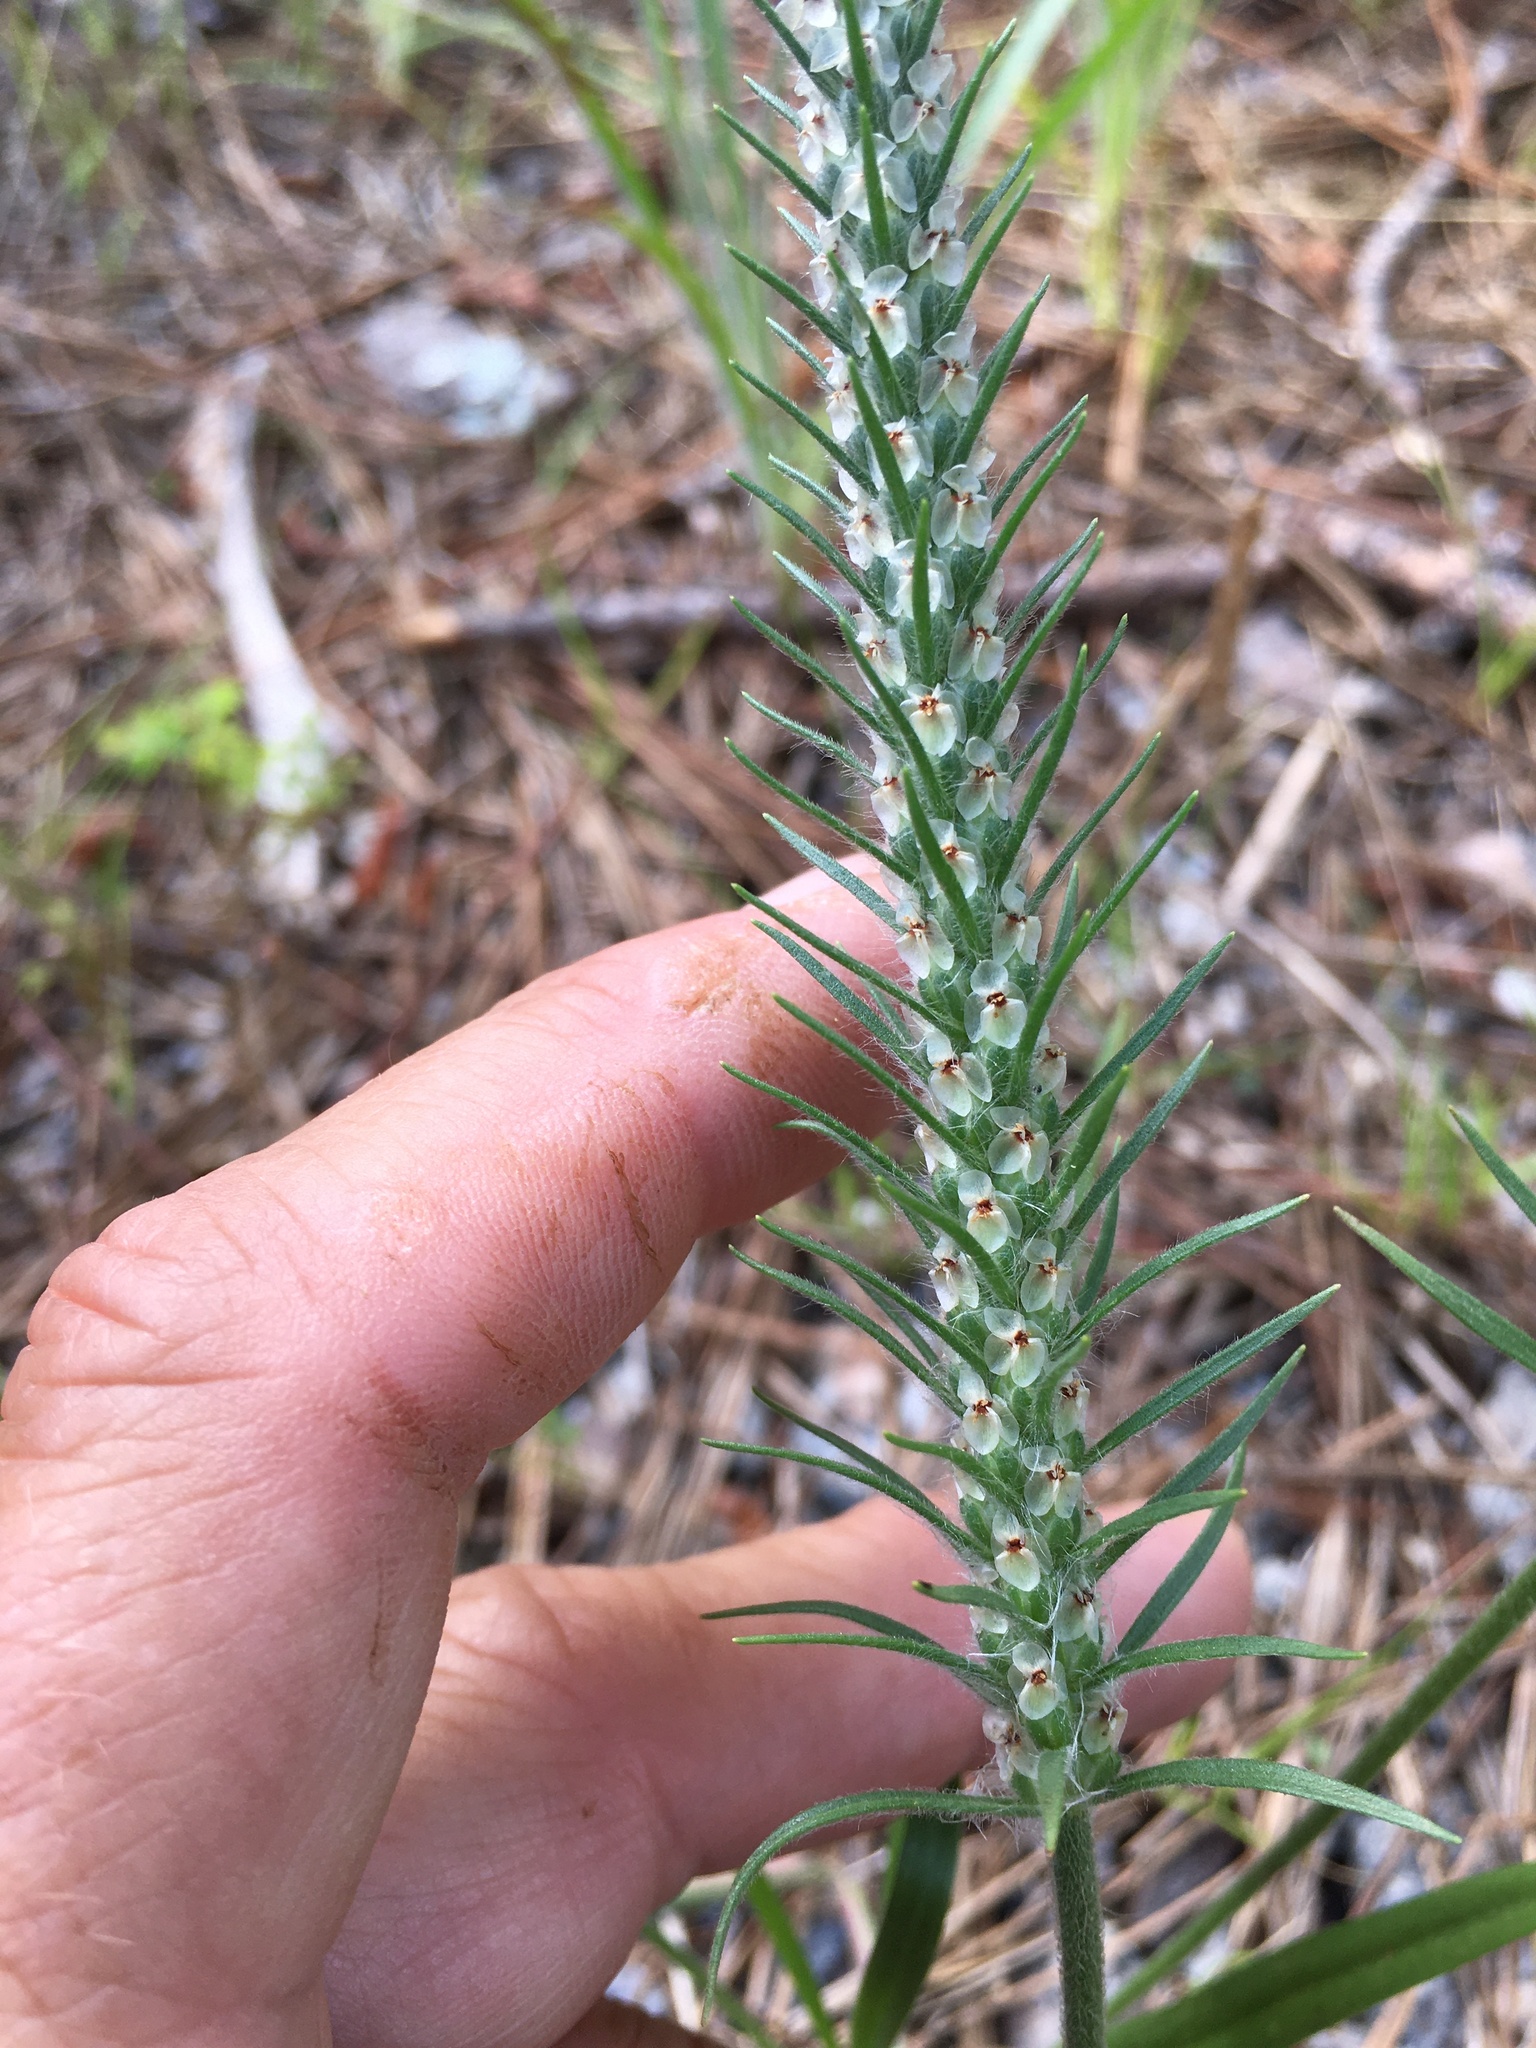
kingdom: Plantae
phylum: Tracheophyta
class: Magnoliopsida
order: Lamiales
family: Plantaginaceae
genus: Plantago
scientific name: Plantago aristata
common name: Bracted plantain
